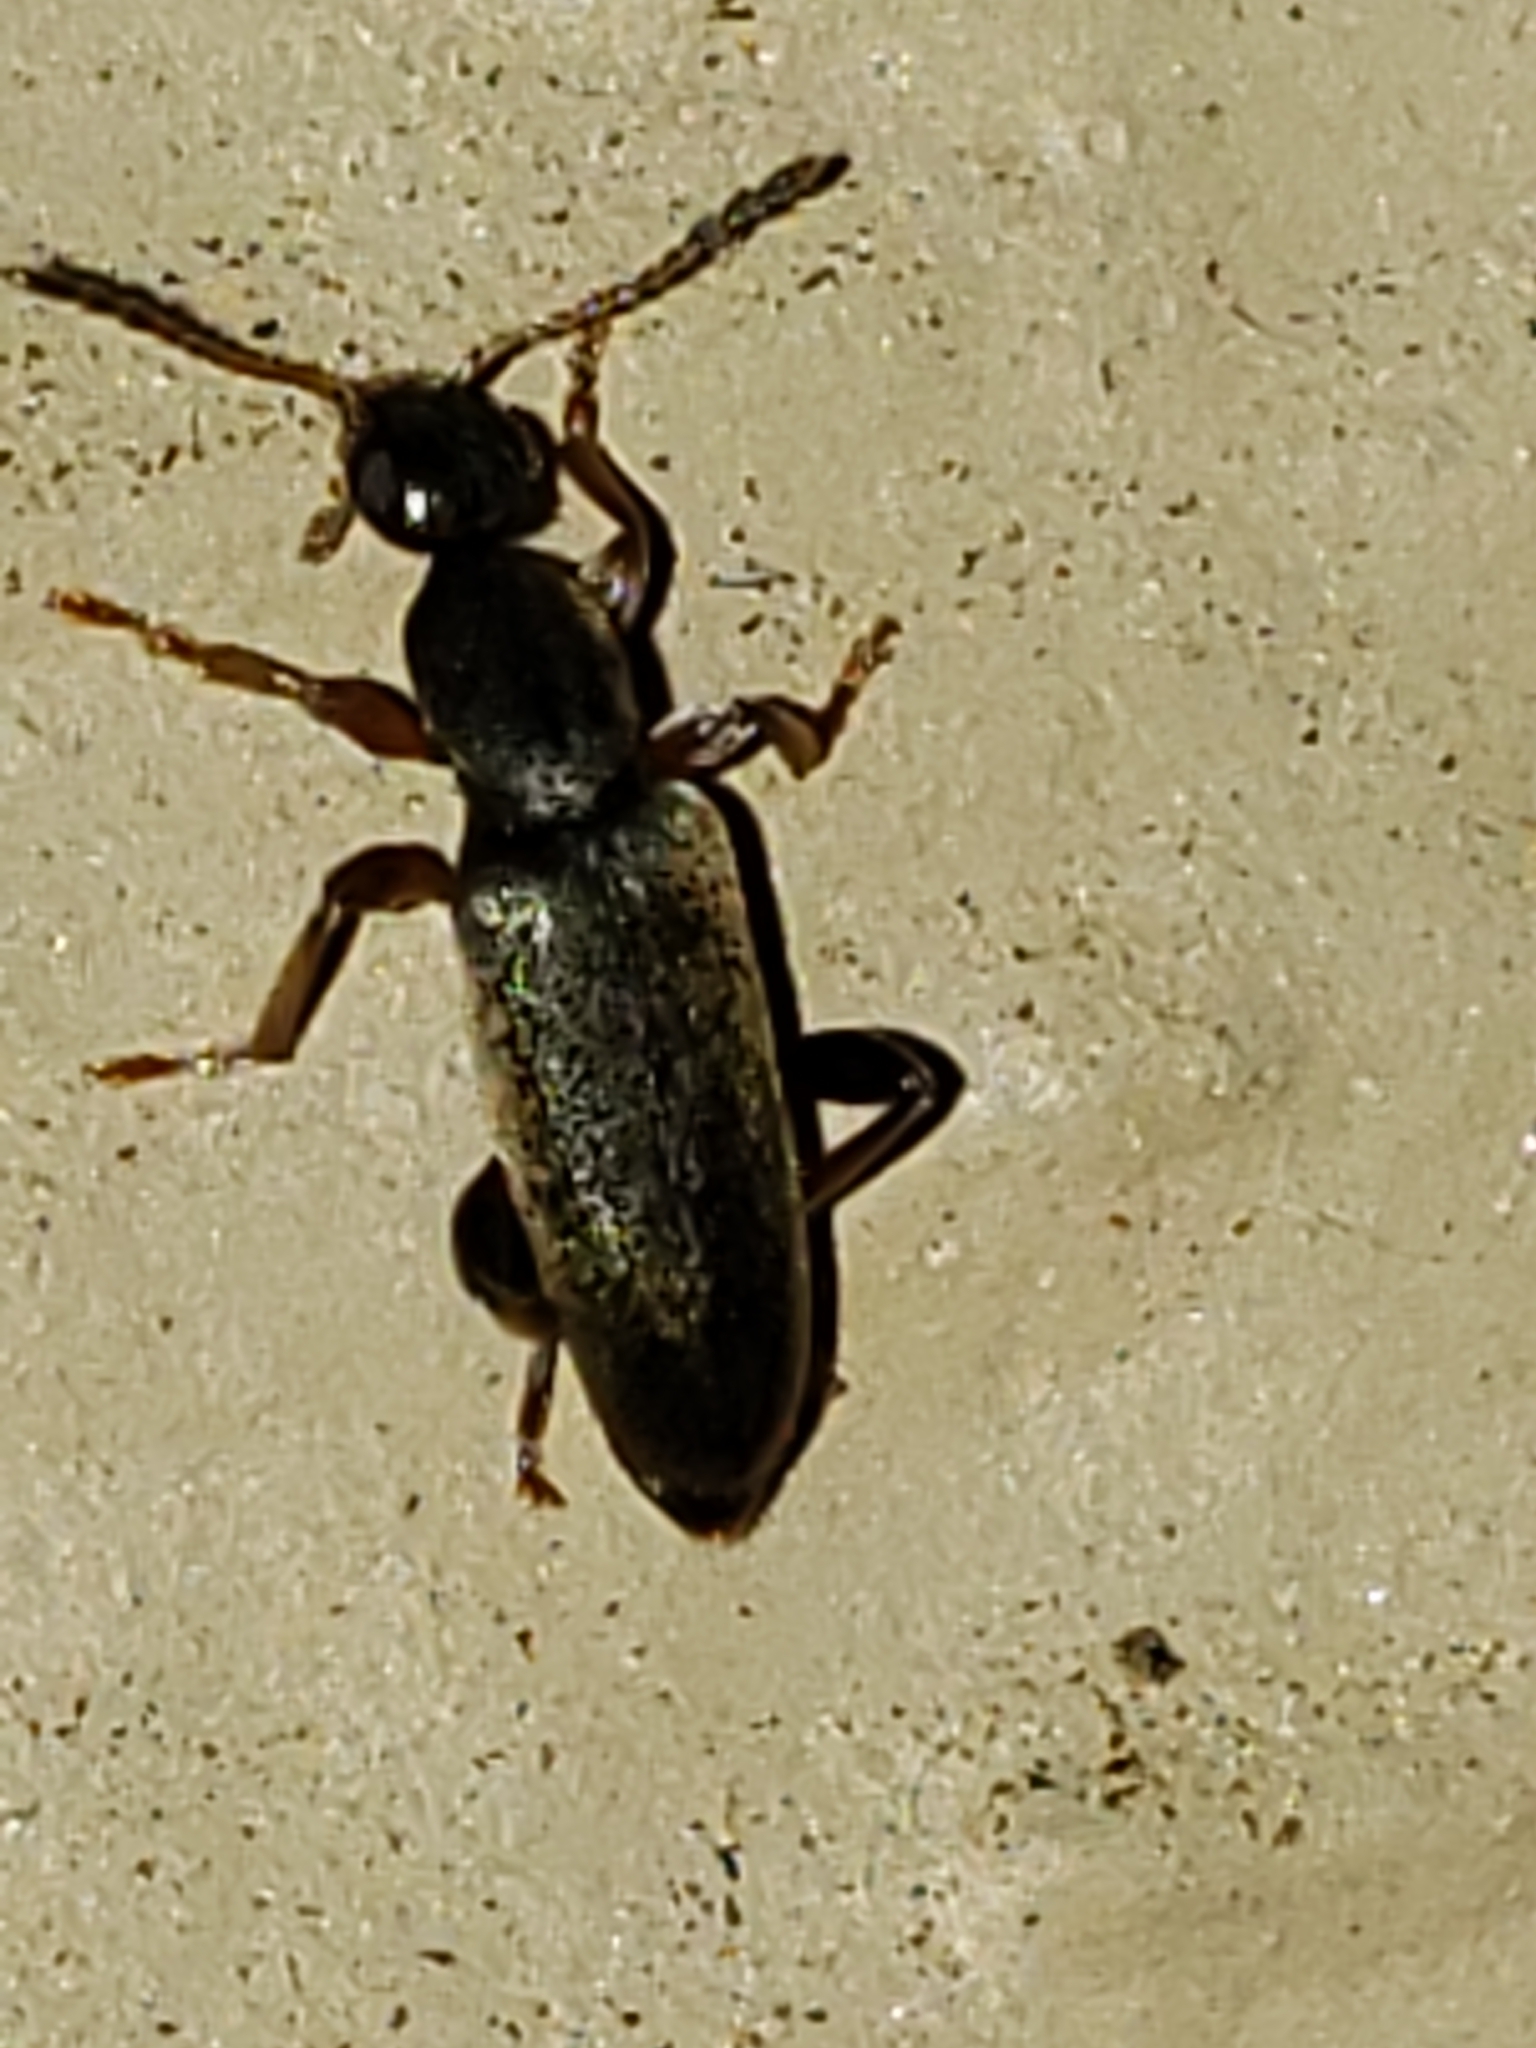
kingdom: Animalia
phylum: Arthropoda
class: Insecta
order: Coleoptera
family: Anthicidae
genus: Macratria
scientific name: Macratria murina
